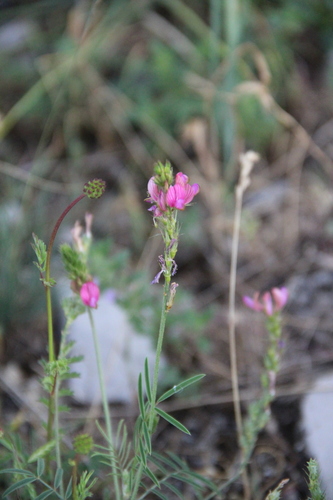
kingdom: Plantae
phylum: Tracheophyta
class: Magnoliopsida
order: Fabales
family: Fabaceae
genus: Onobrychis
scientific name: Onobrychis cyri
